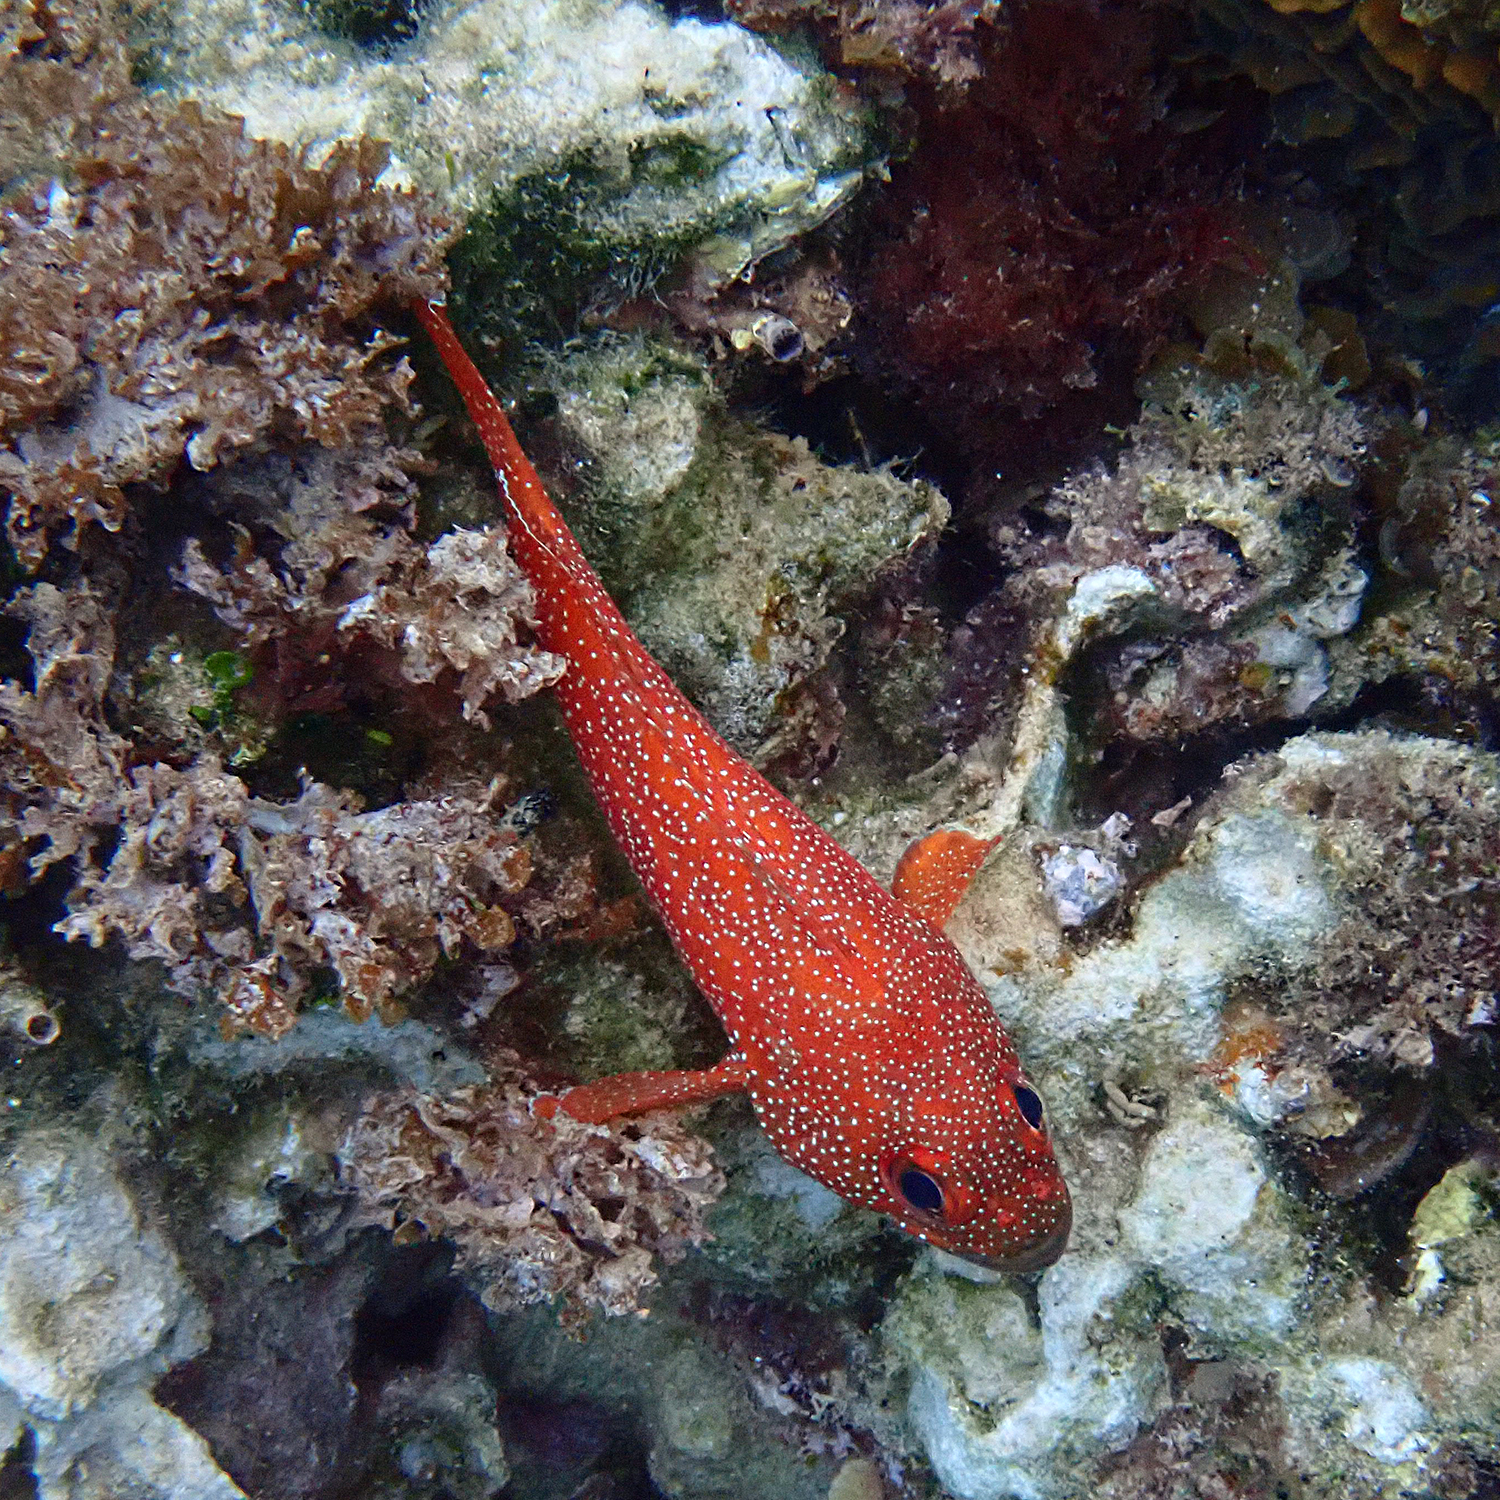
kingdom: Animalia
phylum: Chordata
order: Perciformes
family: Serranidae
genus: Trachypoma
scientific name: Trachypoma macracanthus
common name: Toadstool grouper
